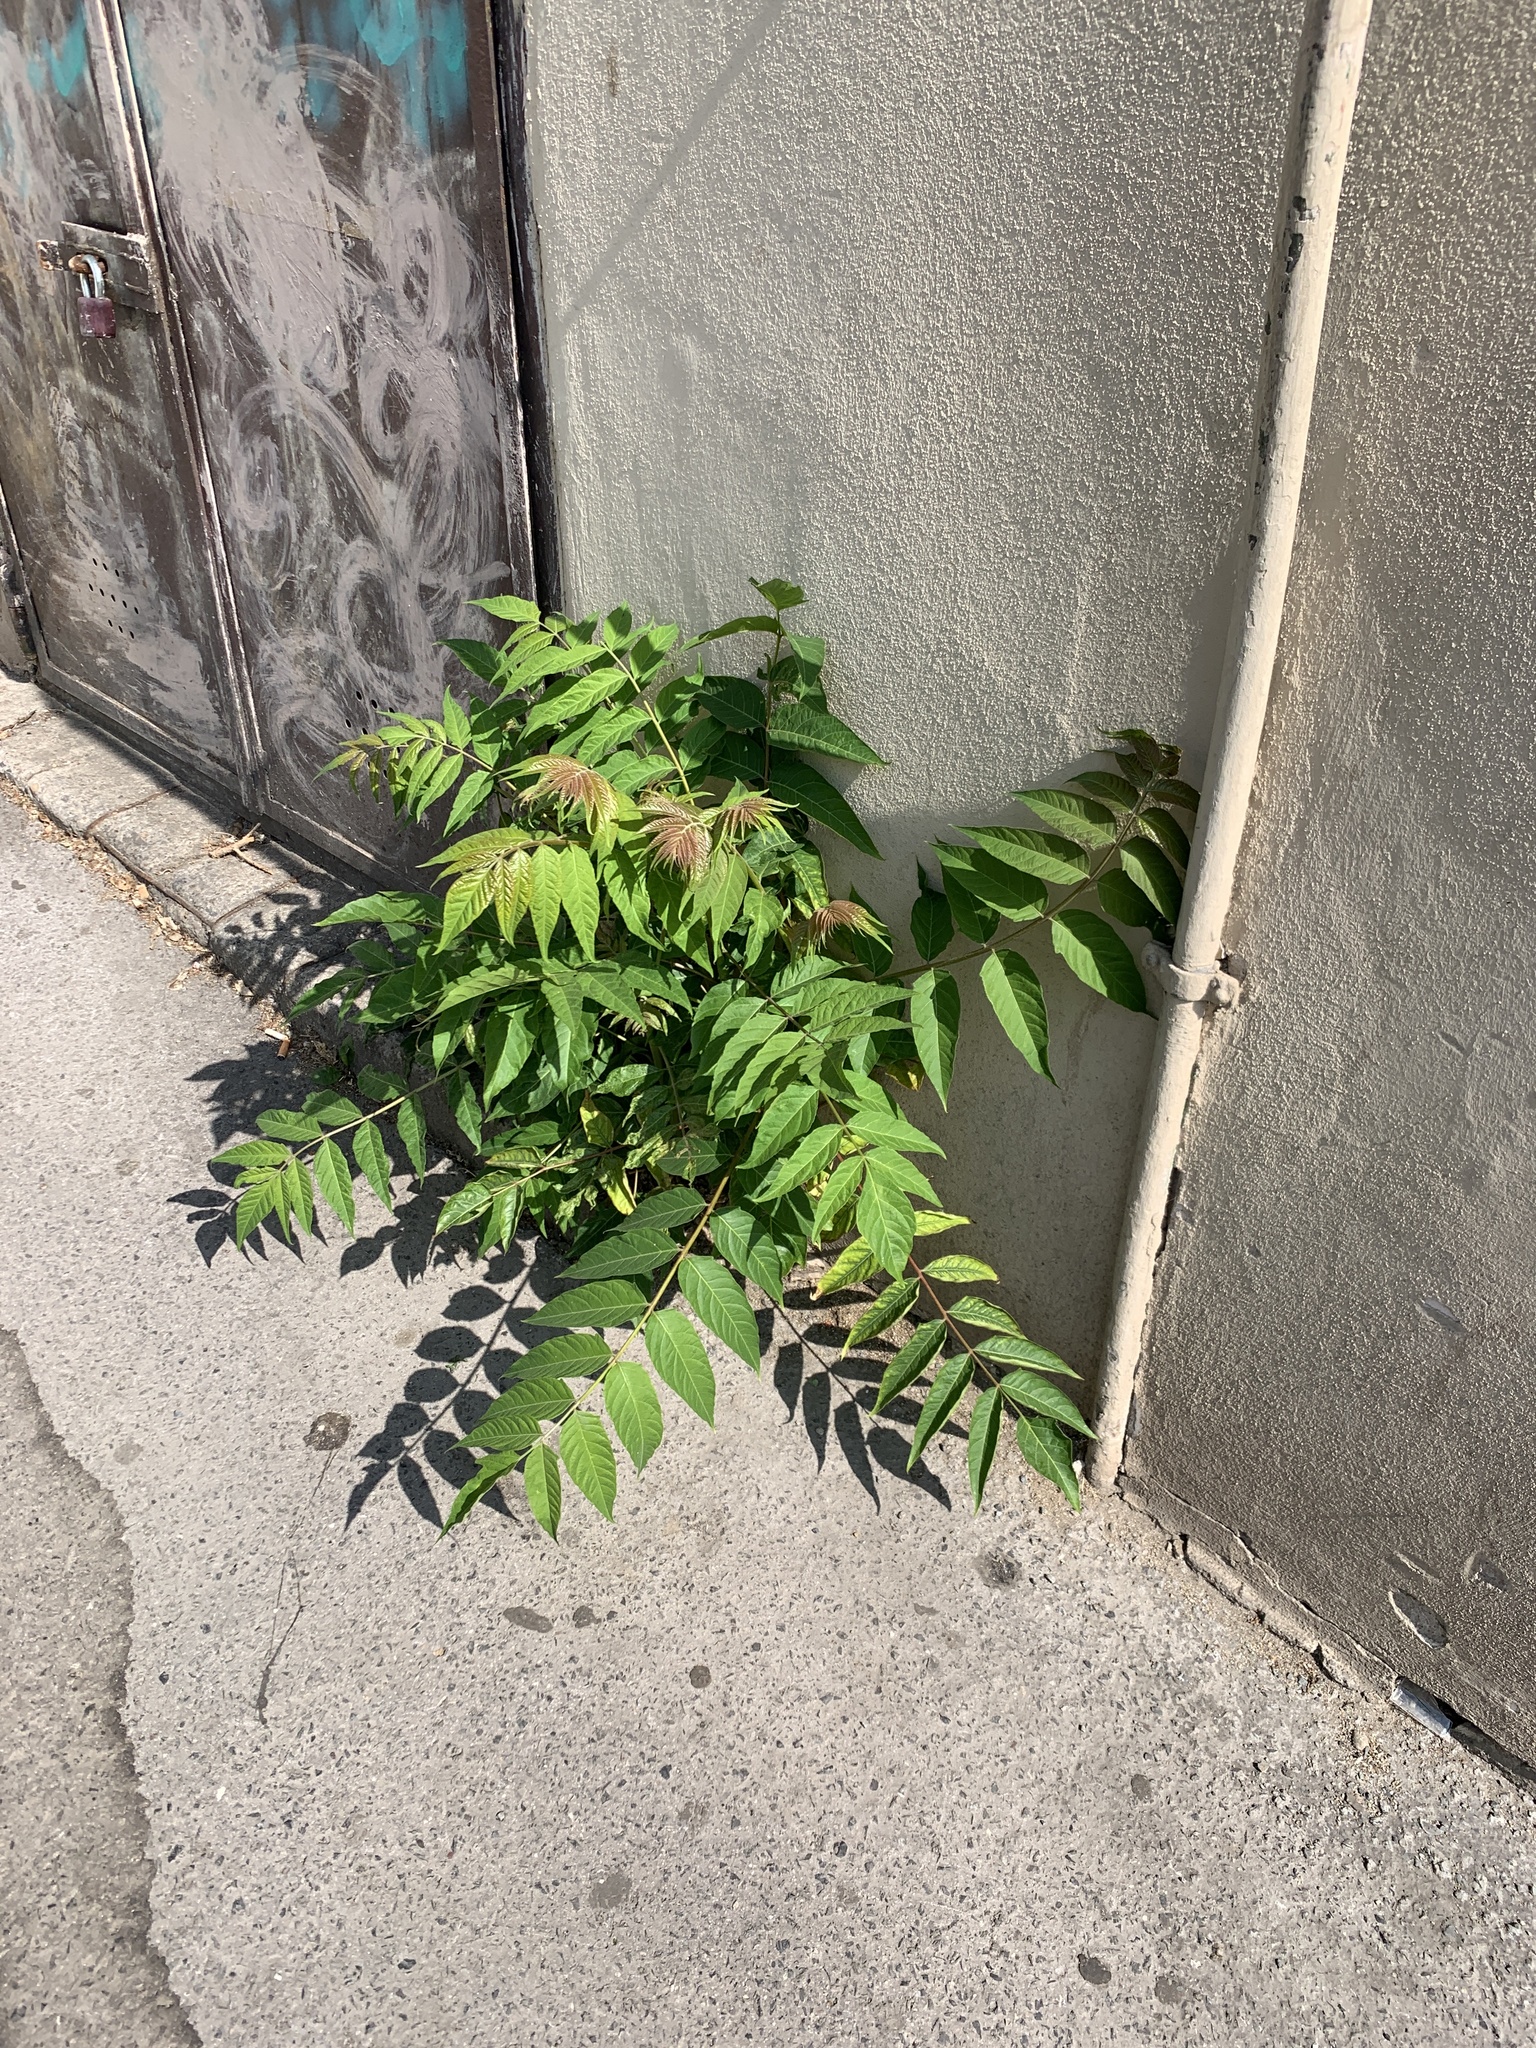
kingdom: Plantae
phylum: Tracheophyta
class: Magnoliopsida
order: Sapindales
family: Simaroubaceae
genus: Ailanthus
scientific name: Ailanthus altissima
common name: Tree-of-heaven
